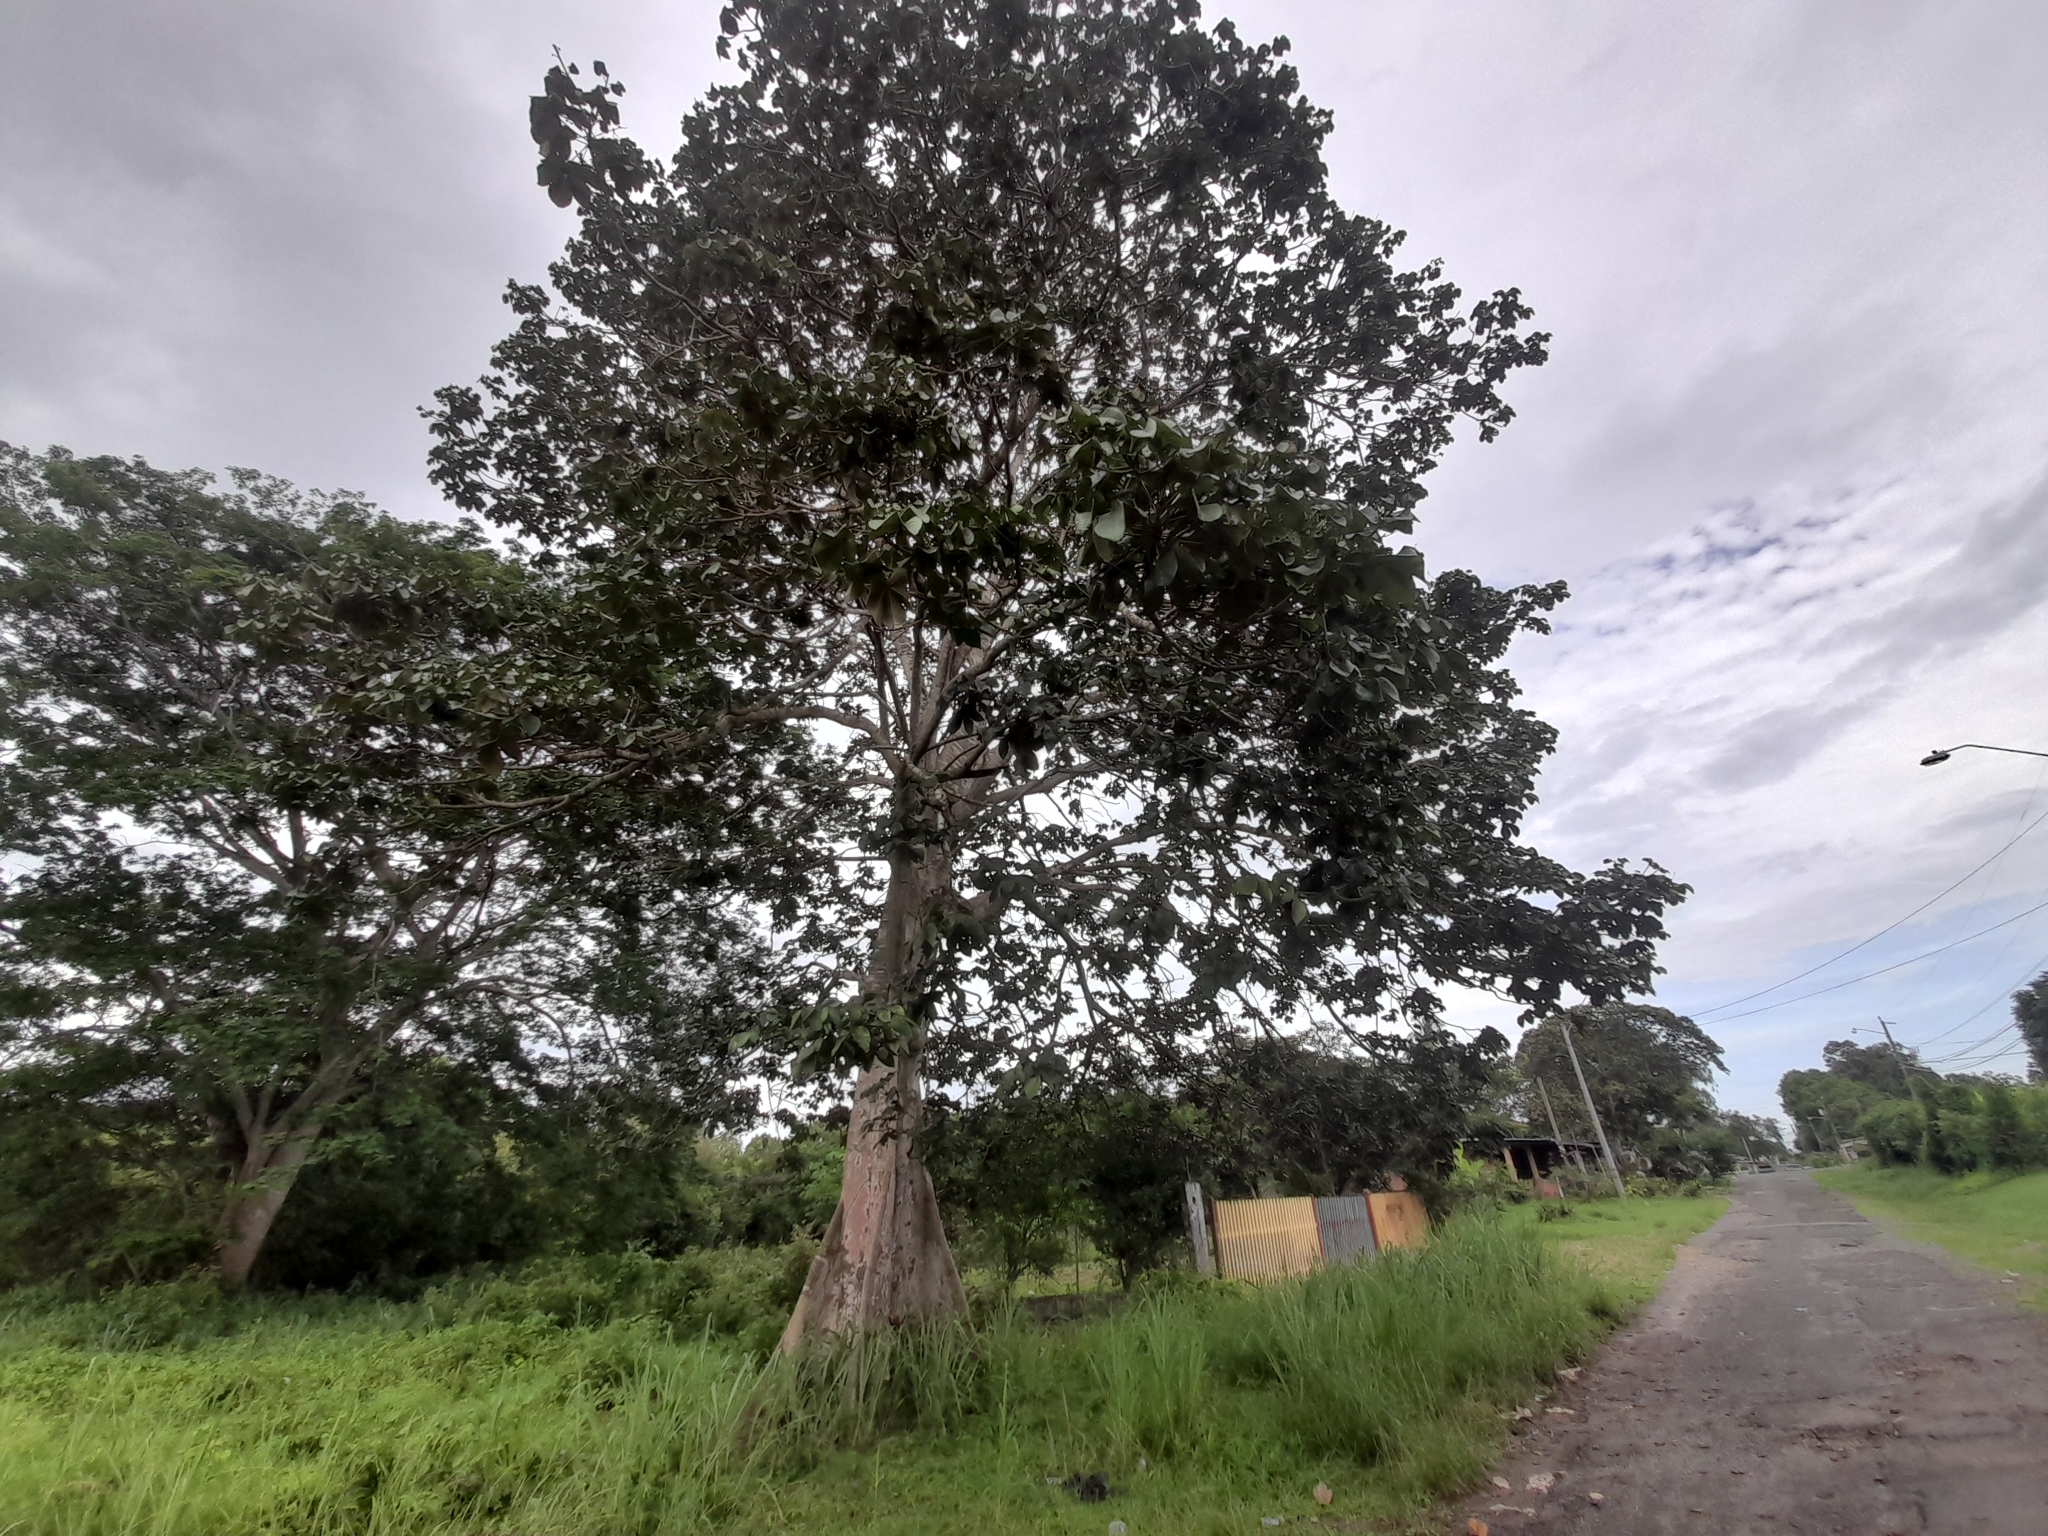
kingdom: Plantae
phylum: Tracheophyta
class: Magnoliopsida
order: Malvales
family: Malvaceae
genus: Sterculia
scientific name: Sterculia apetala
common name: Panama tree
